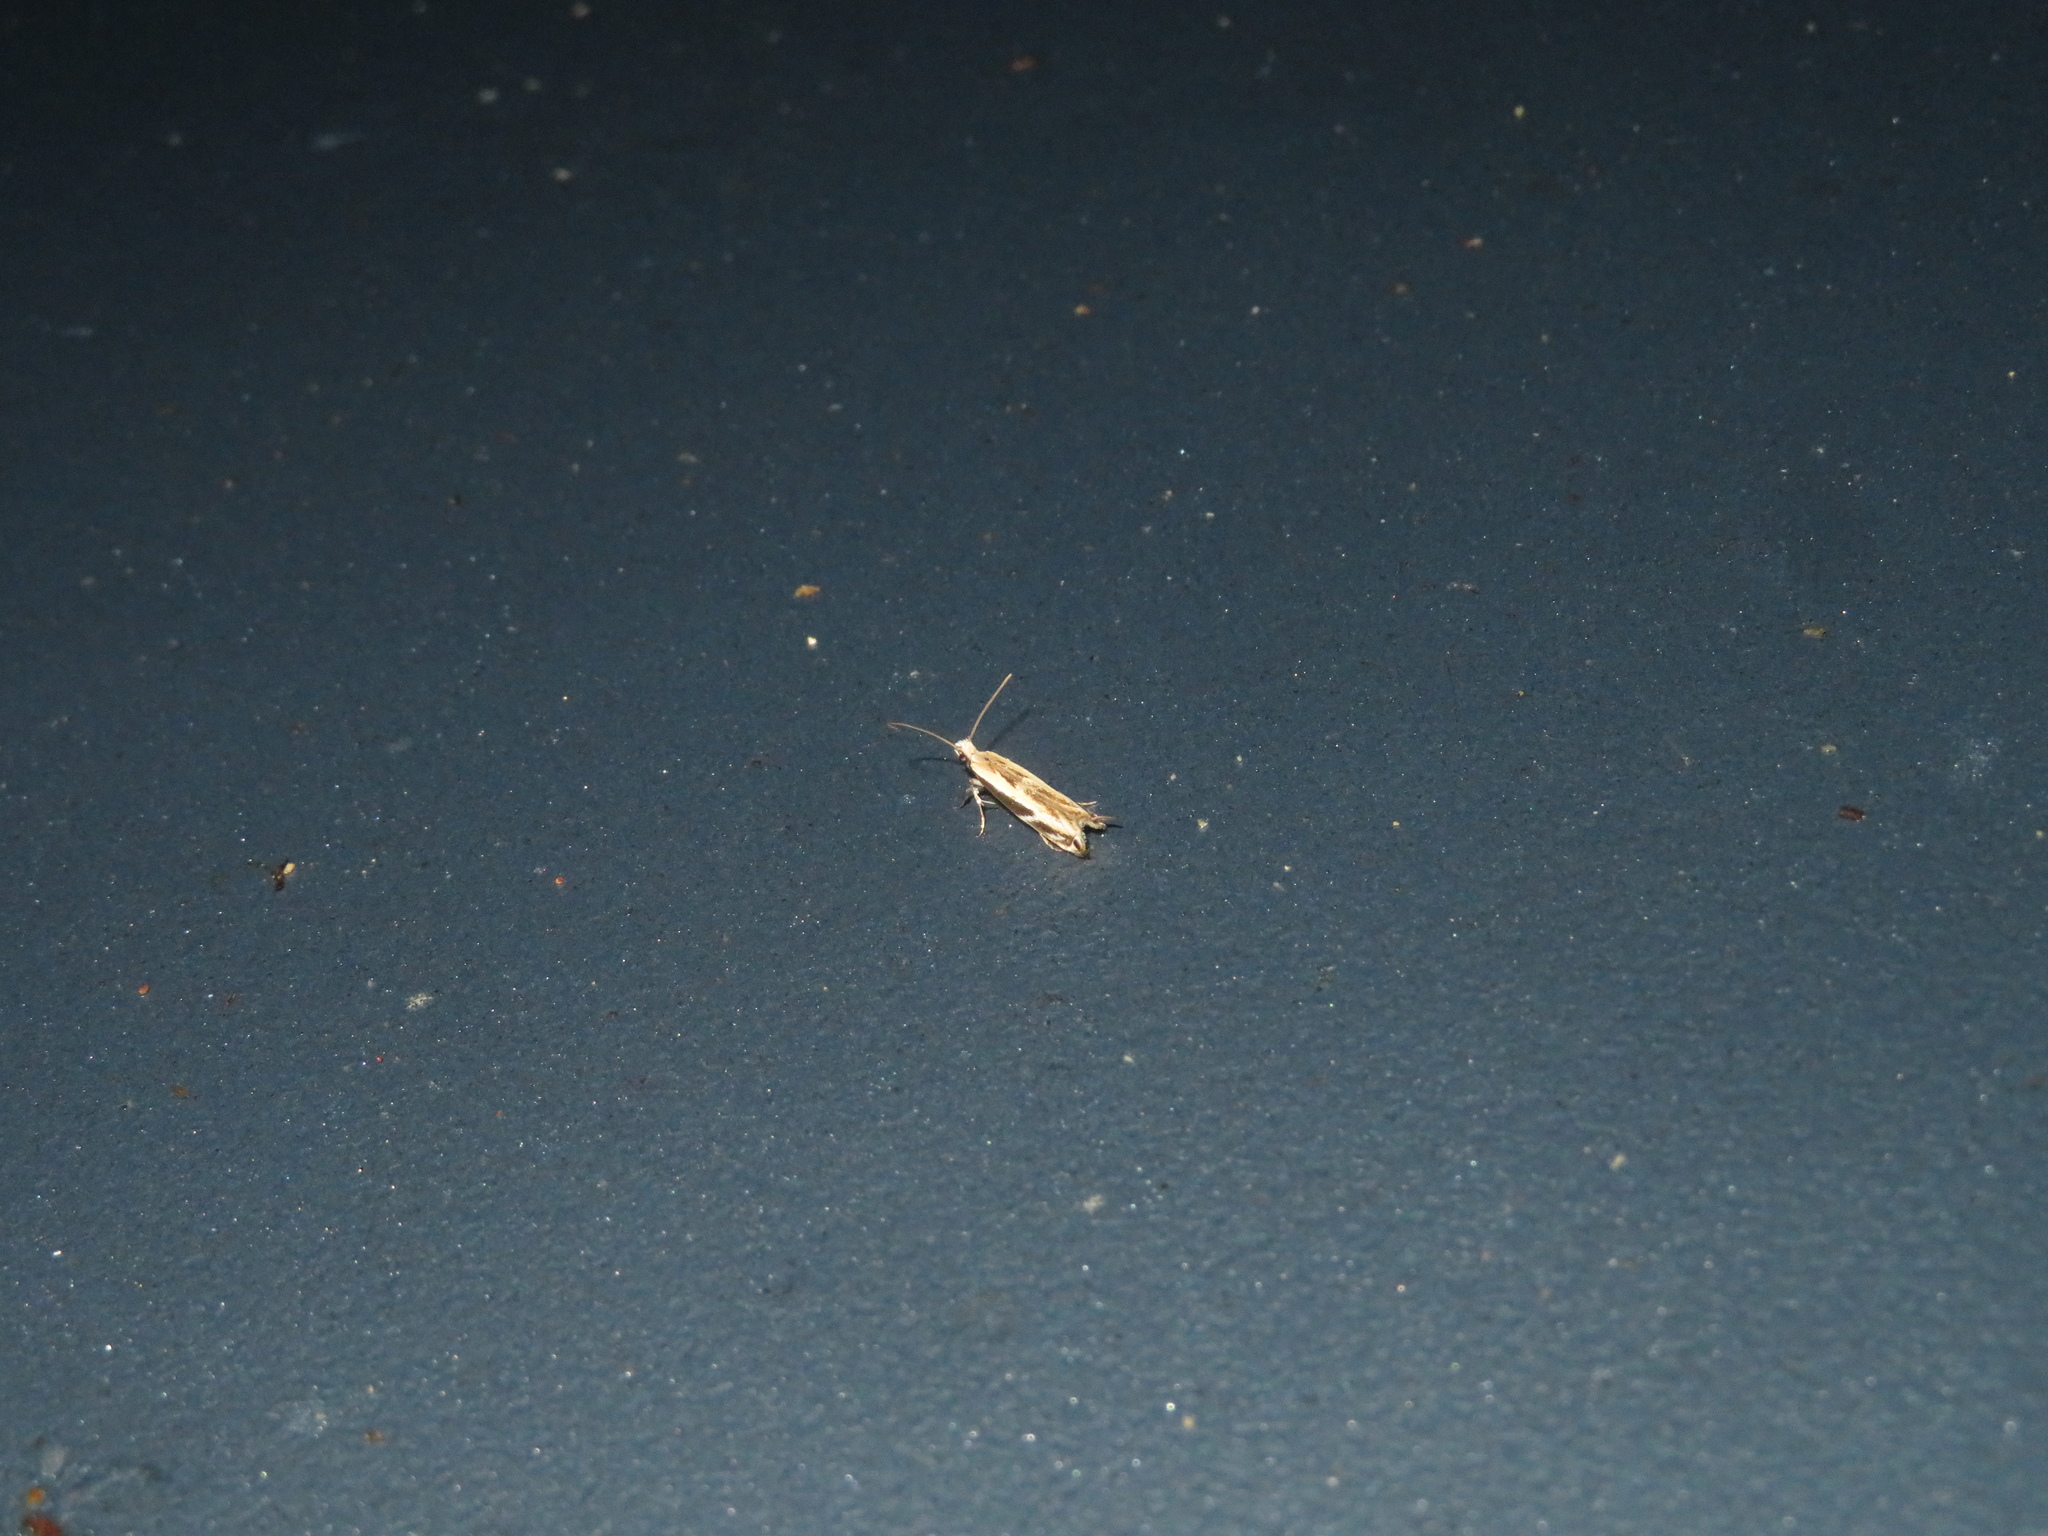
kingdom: Animalia
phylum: Arthropoda
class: Insecta
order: Lepidoptera
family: Tineidae
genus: Erechthias
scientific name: Erechthias terminella
